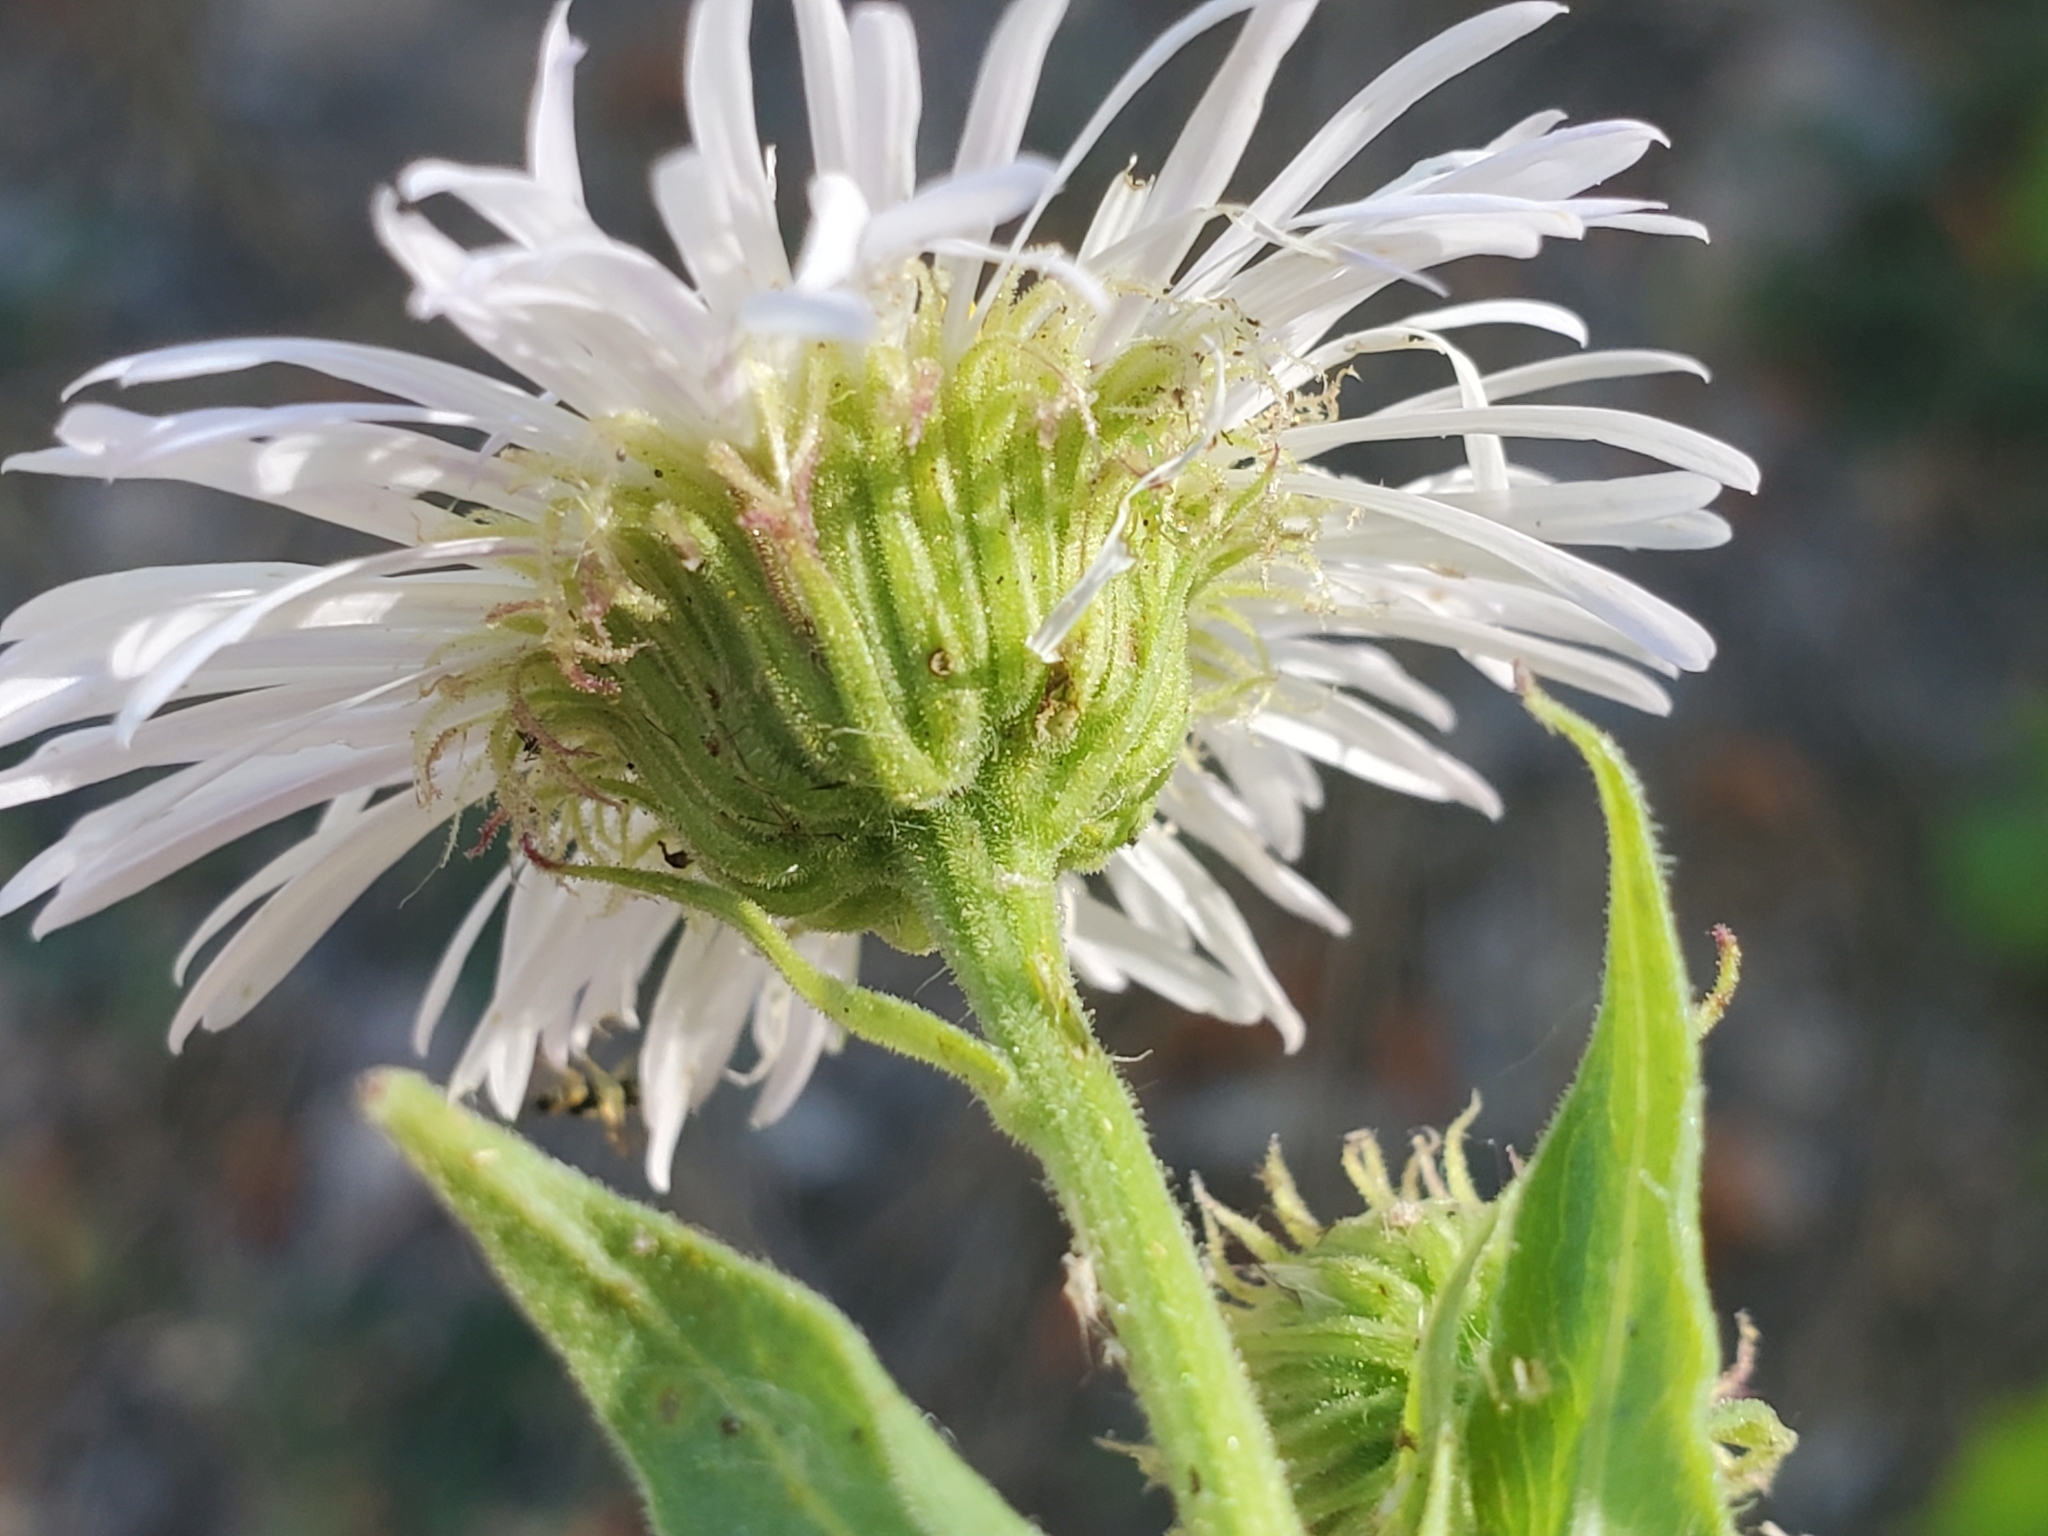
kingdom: Plantae
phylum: Tracheophyta
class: Magnoliopsida
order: Asterales
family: Asteraceae
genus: Erigeron
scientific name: Erigeron speciosus
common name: Aspen fleabane
